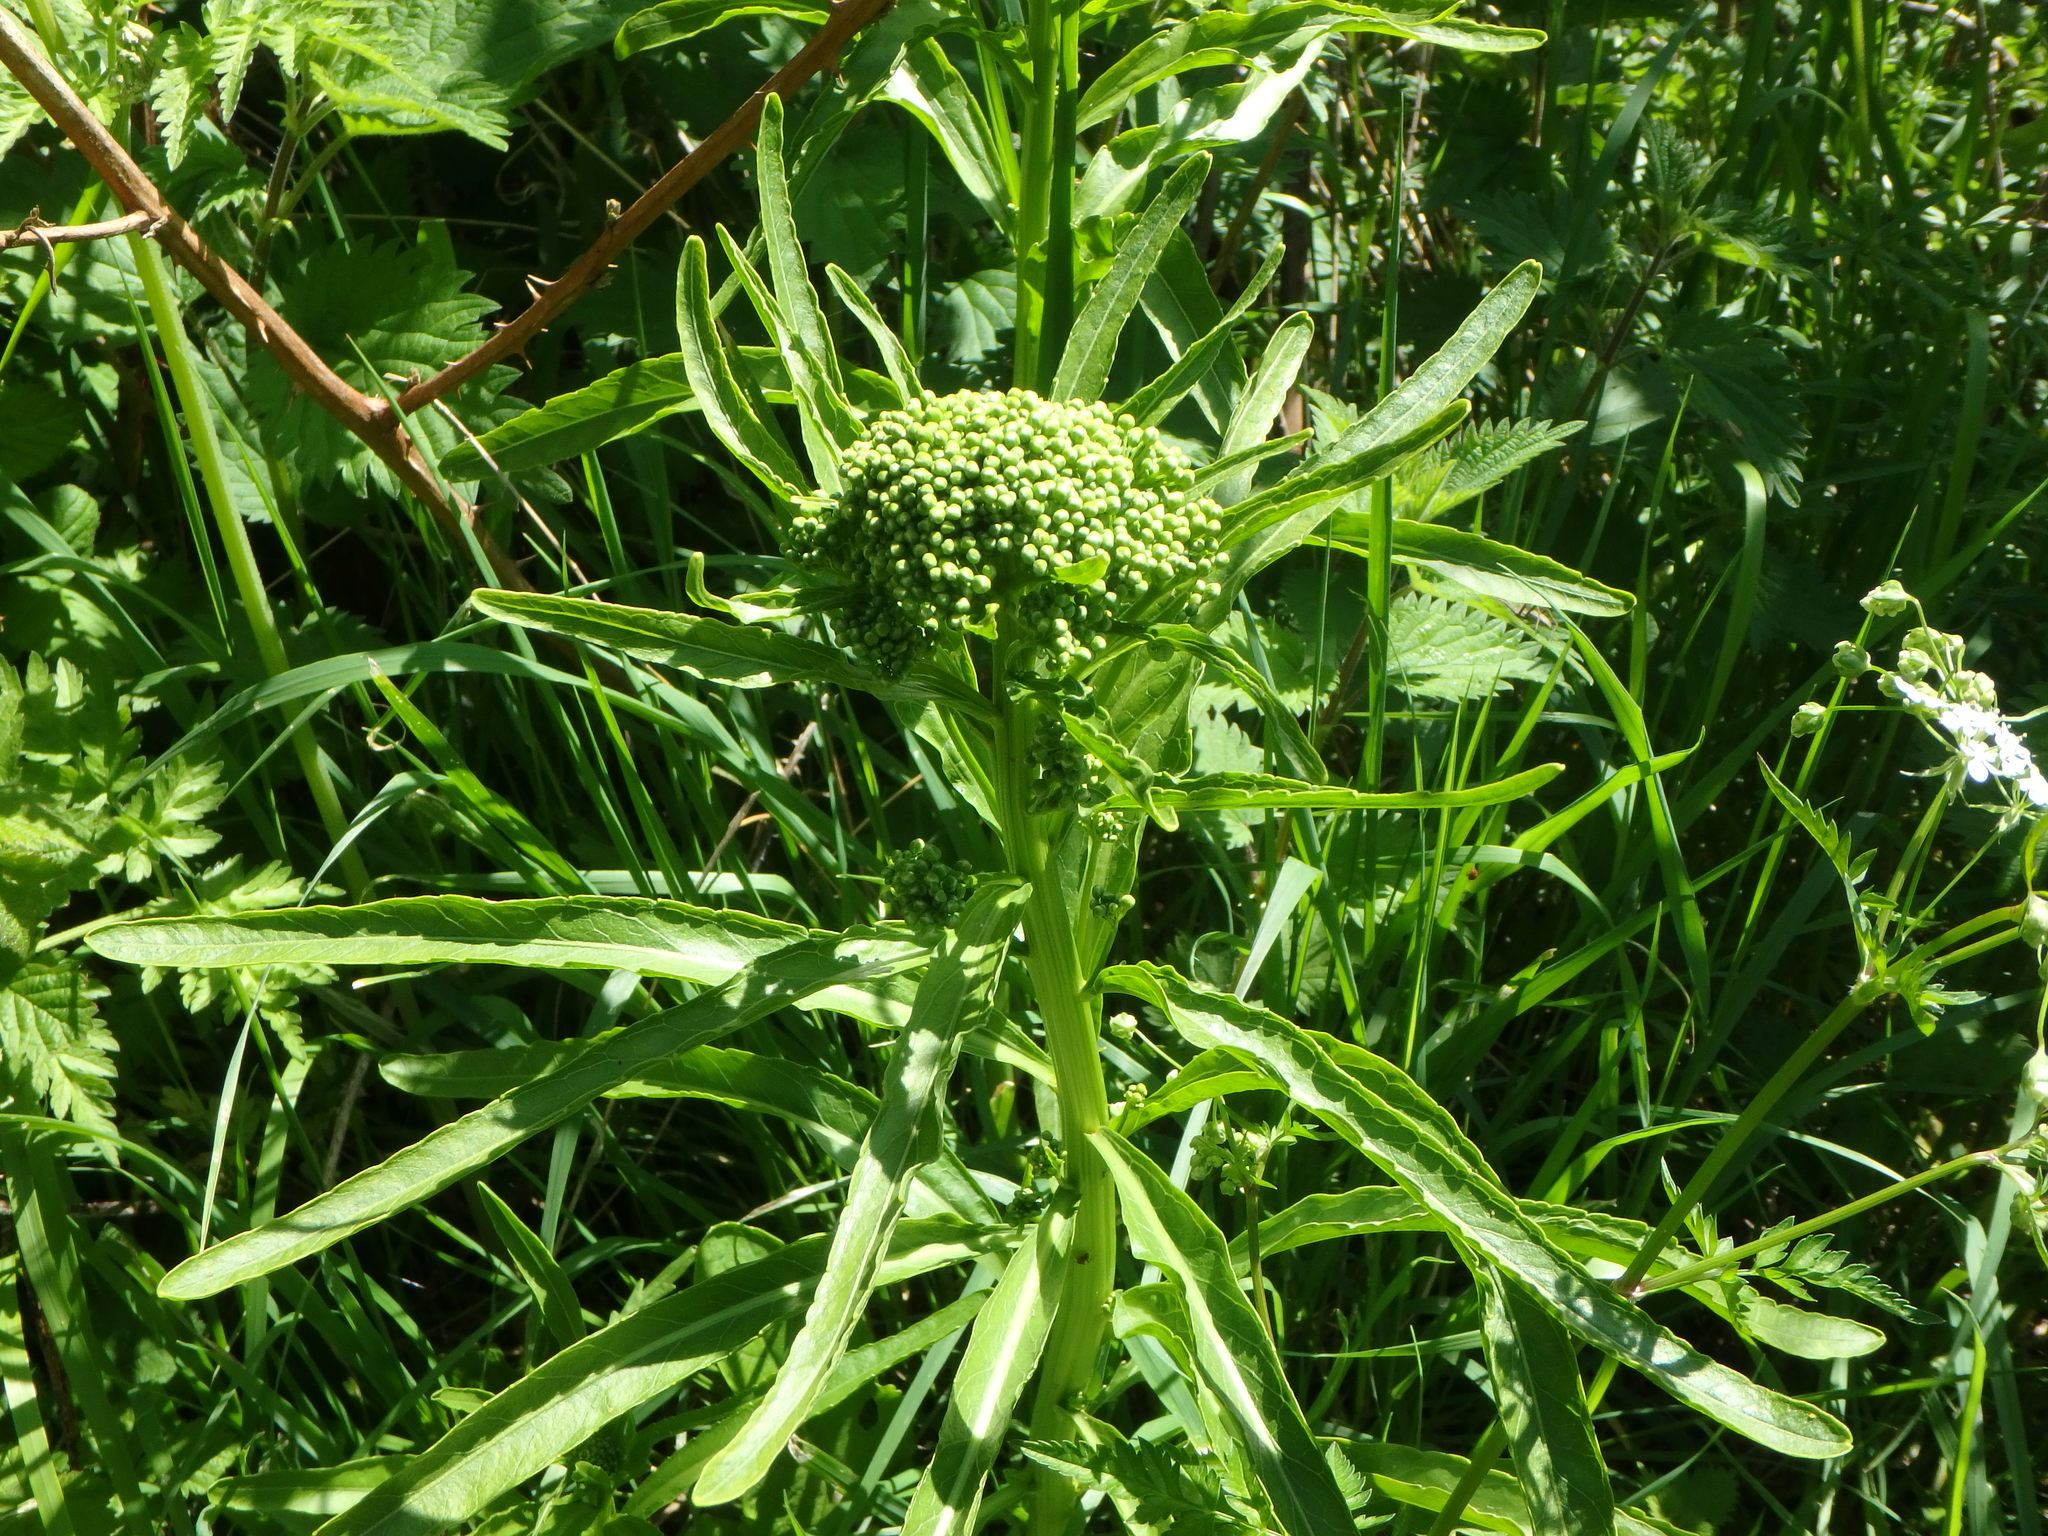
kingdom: Plantae
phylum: Tracheophyta
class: Magnoliopsida
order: Brassicales
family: Brassicaceae
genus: Armoracia
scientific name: Armoracia rusticana
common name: Horseradish
